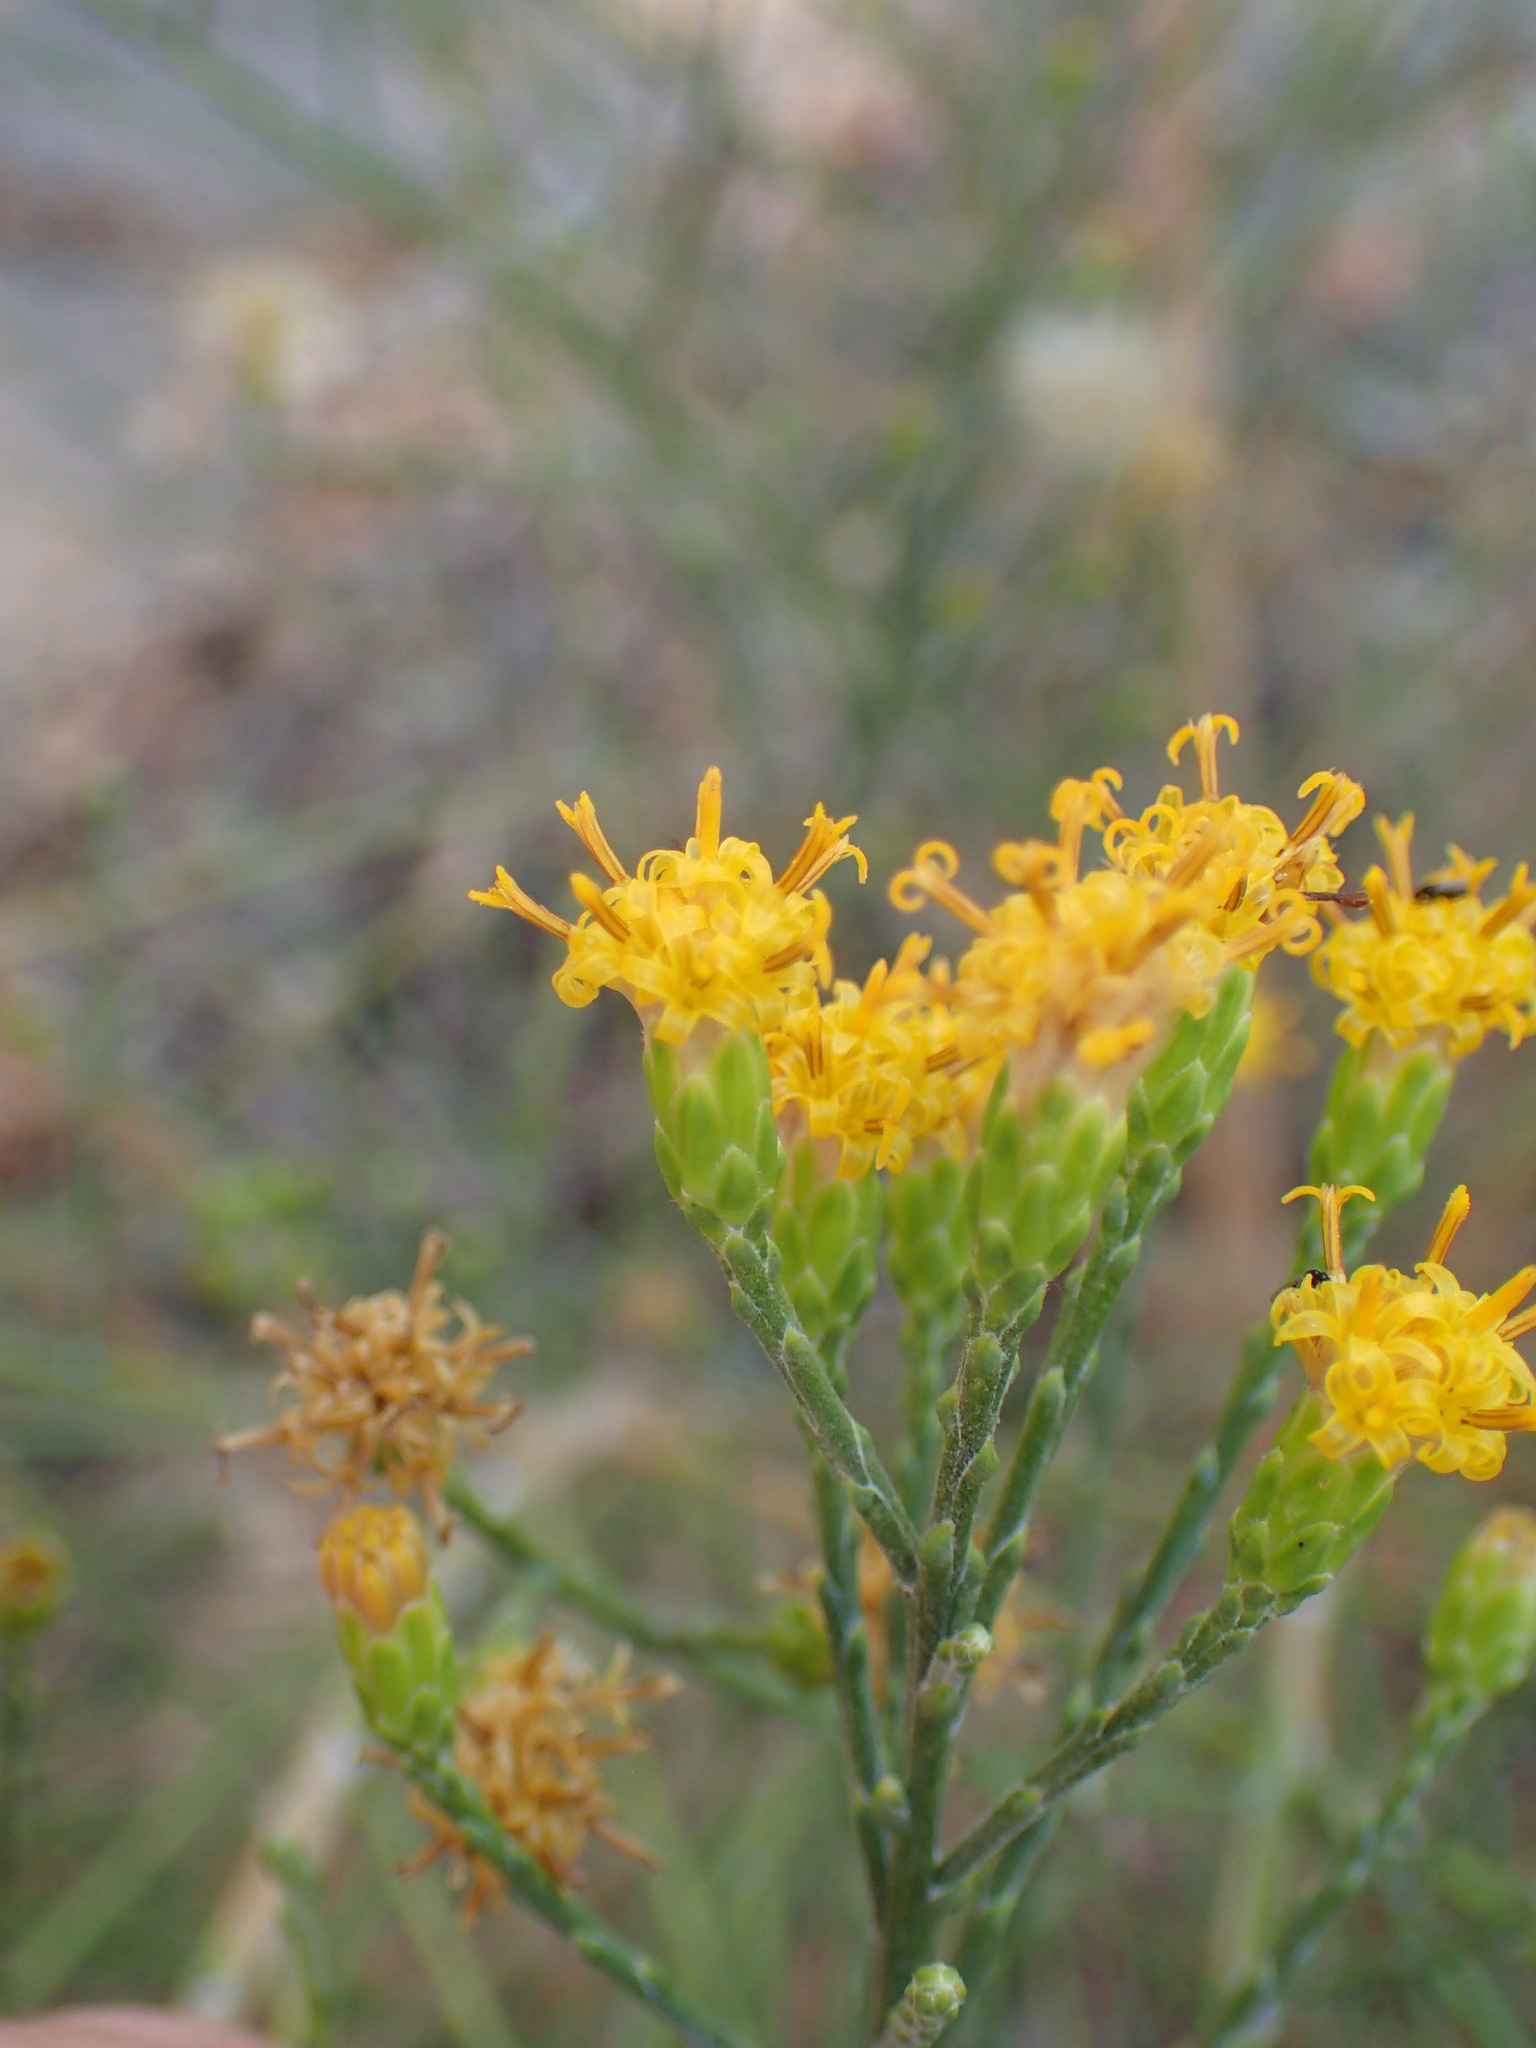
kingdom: Plantae
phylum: Tracheophyta
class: Magnoliopsida
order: Asterales
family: Asteraceae
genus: Lepidospartum
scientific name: Lepidospartum squamatum
